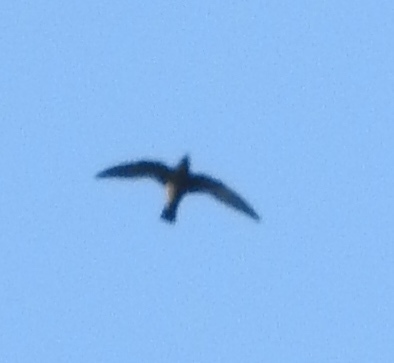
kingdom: Animalia
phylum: Chordata
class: Aves
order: Apodiformes
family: Apodidae
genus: Streptoprocne
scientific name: Streptoprocne semicollaris
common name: White-naped swift
